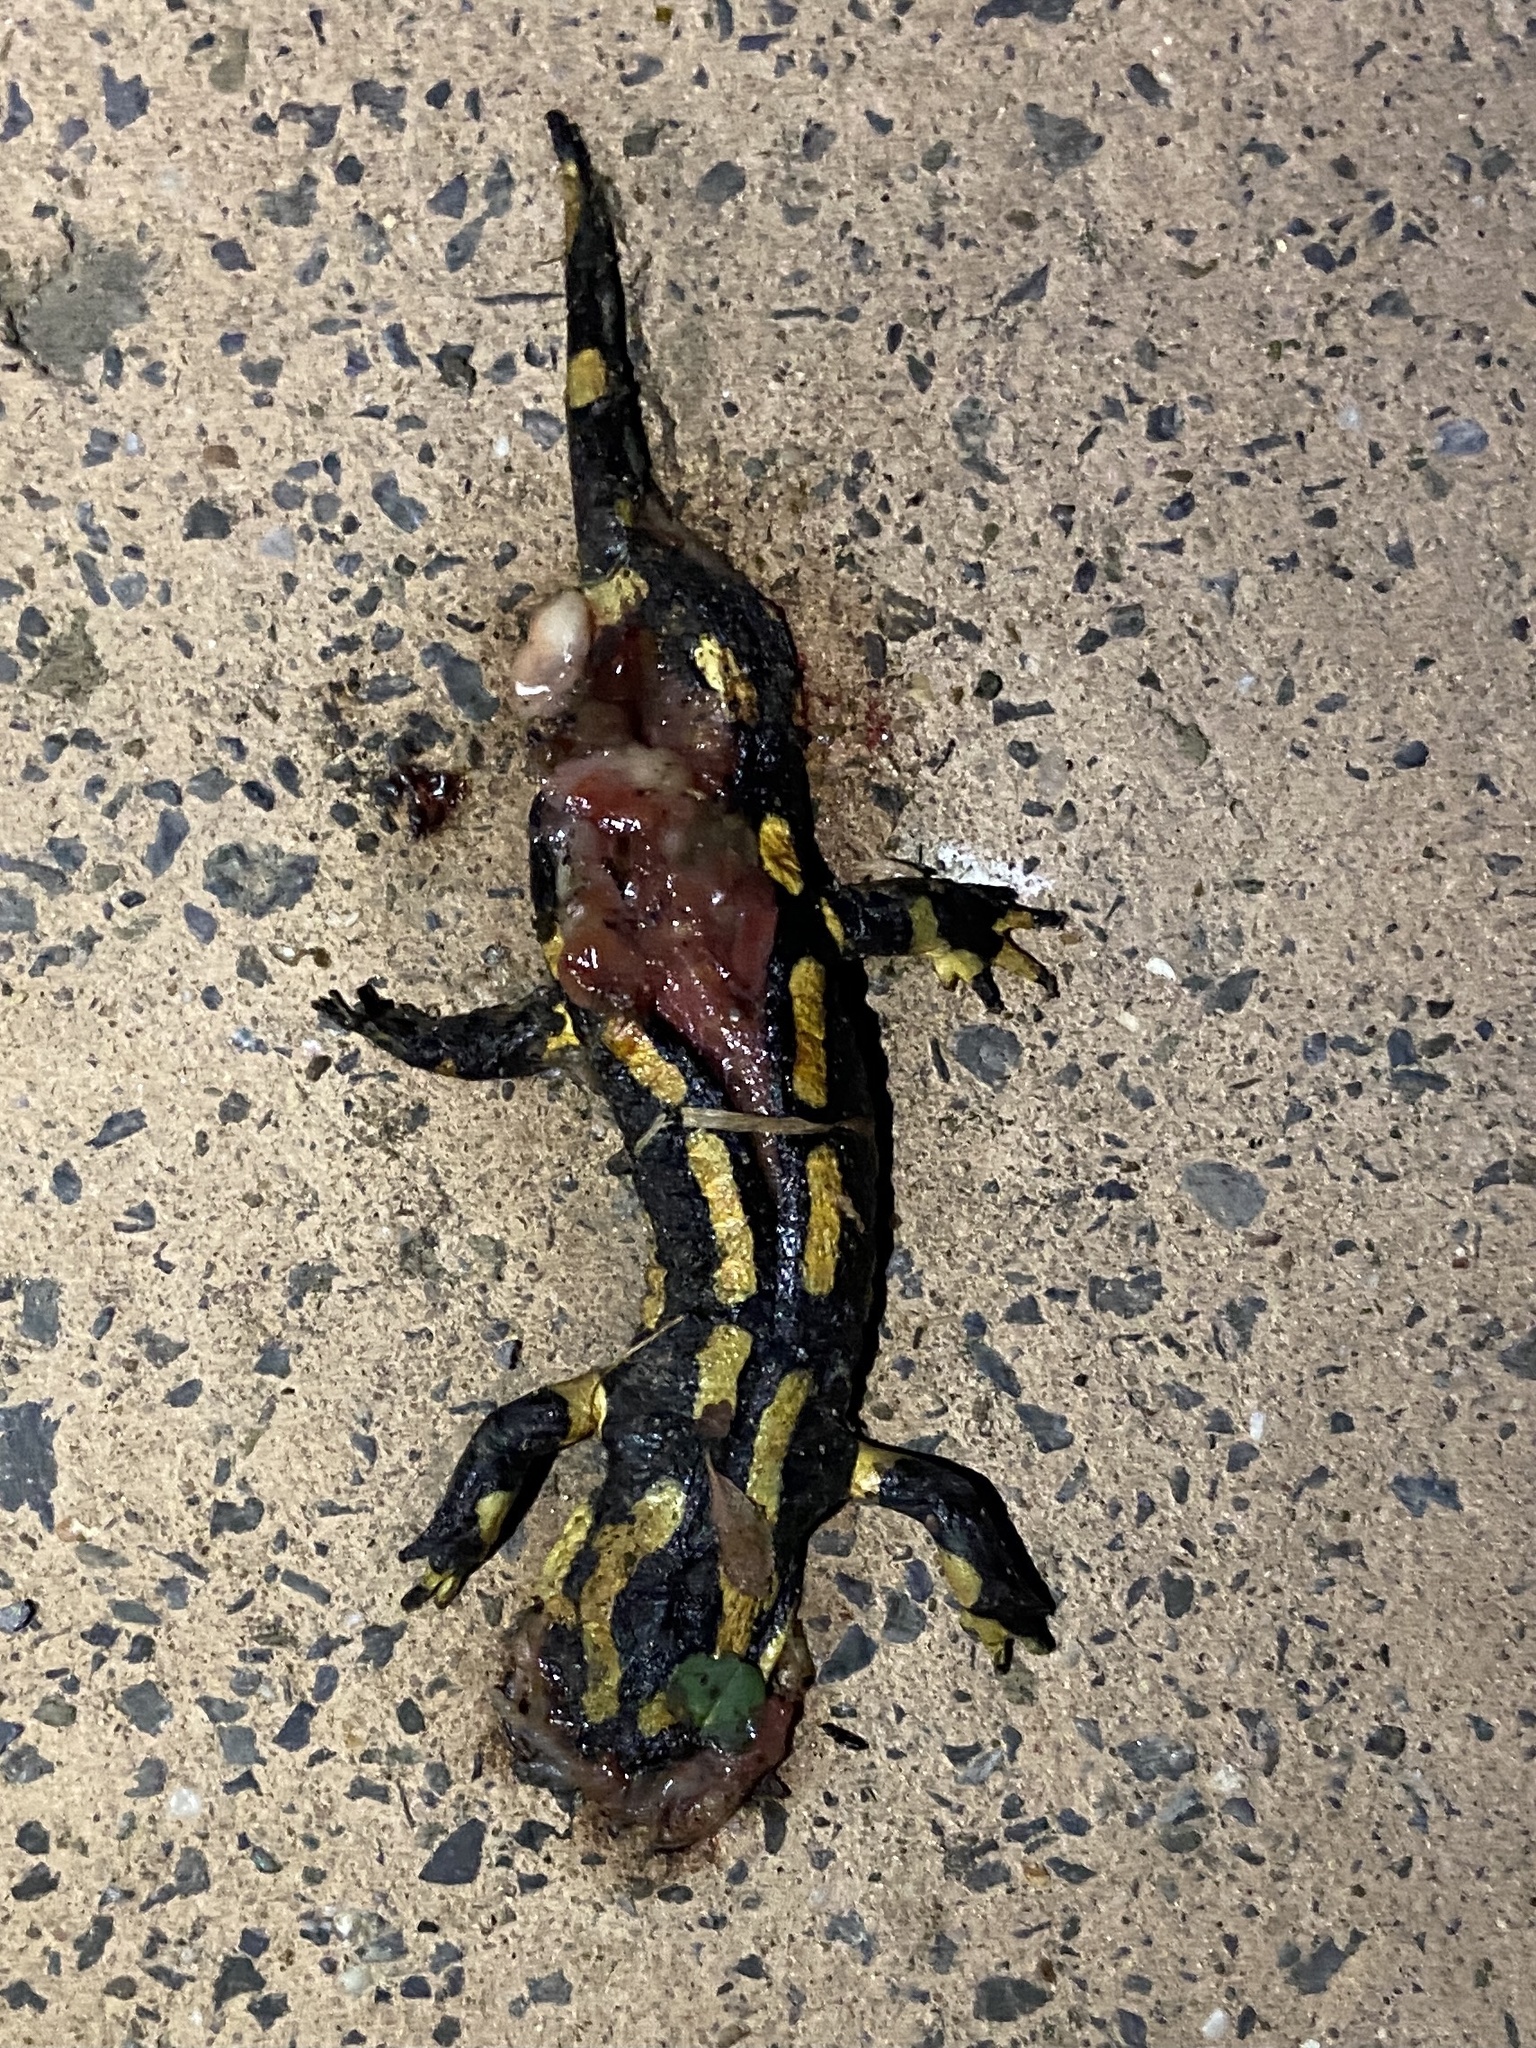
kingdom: Animalia
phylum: Chordata
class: Amphibia
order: Caudata
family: Salamandridae
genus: Salamandra
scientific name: Salamandra salamandra
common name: Fire salamander
